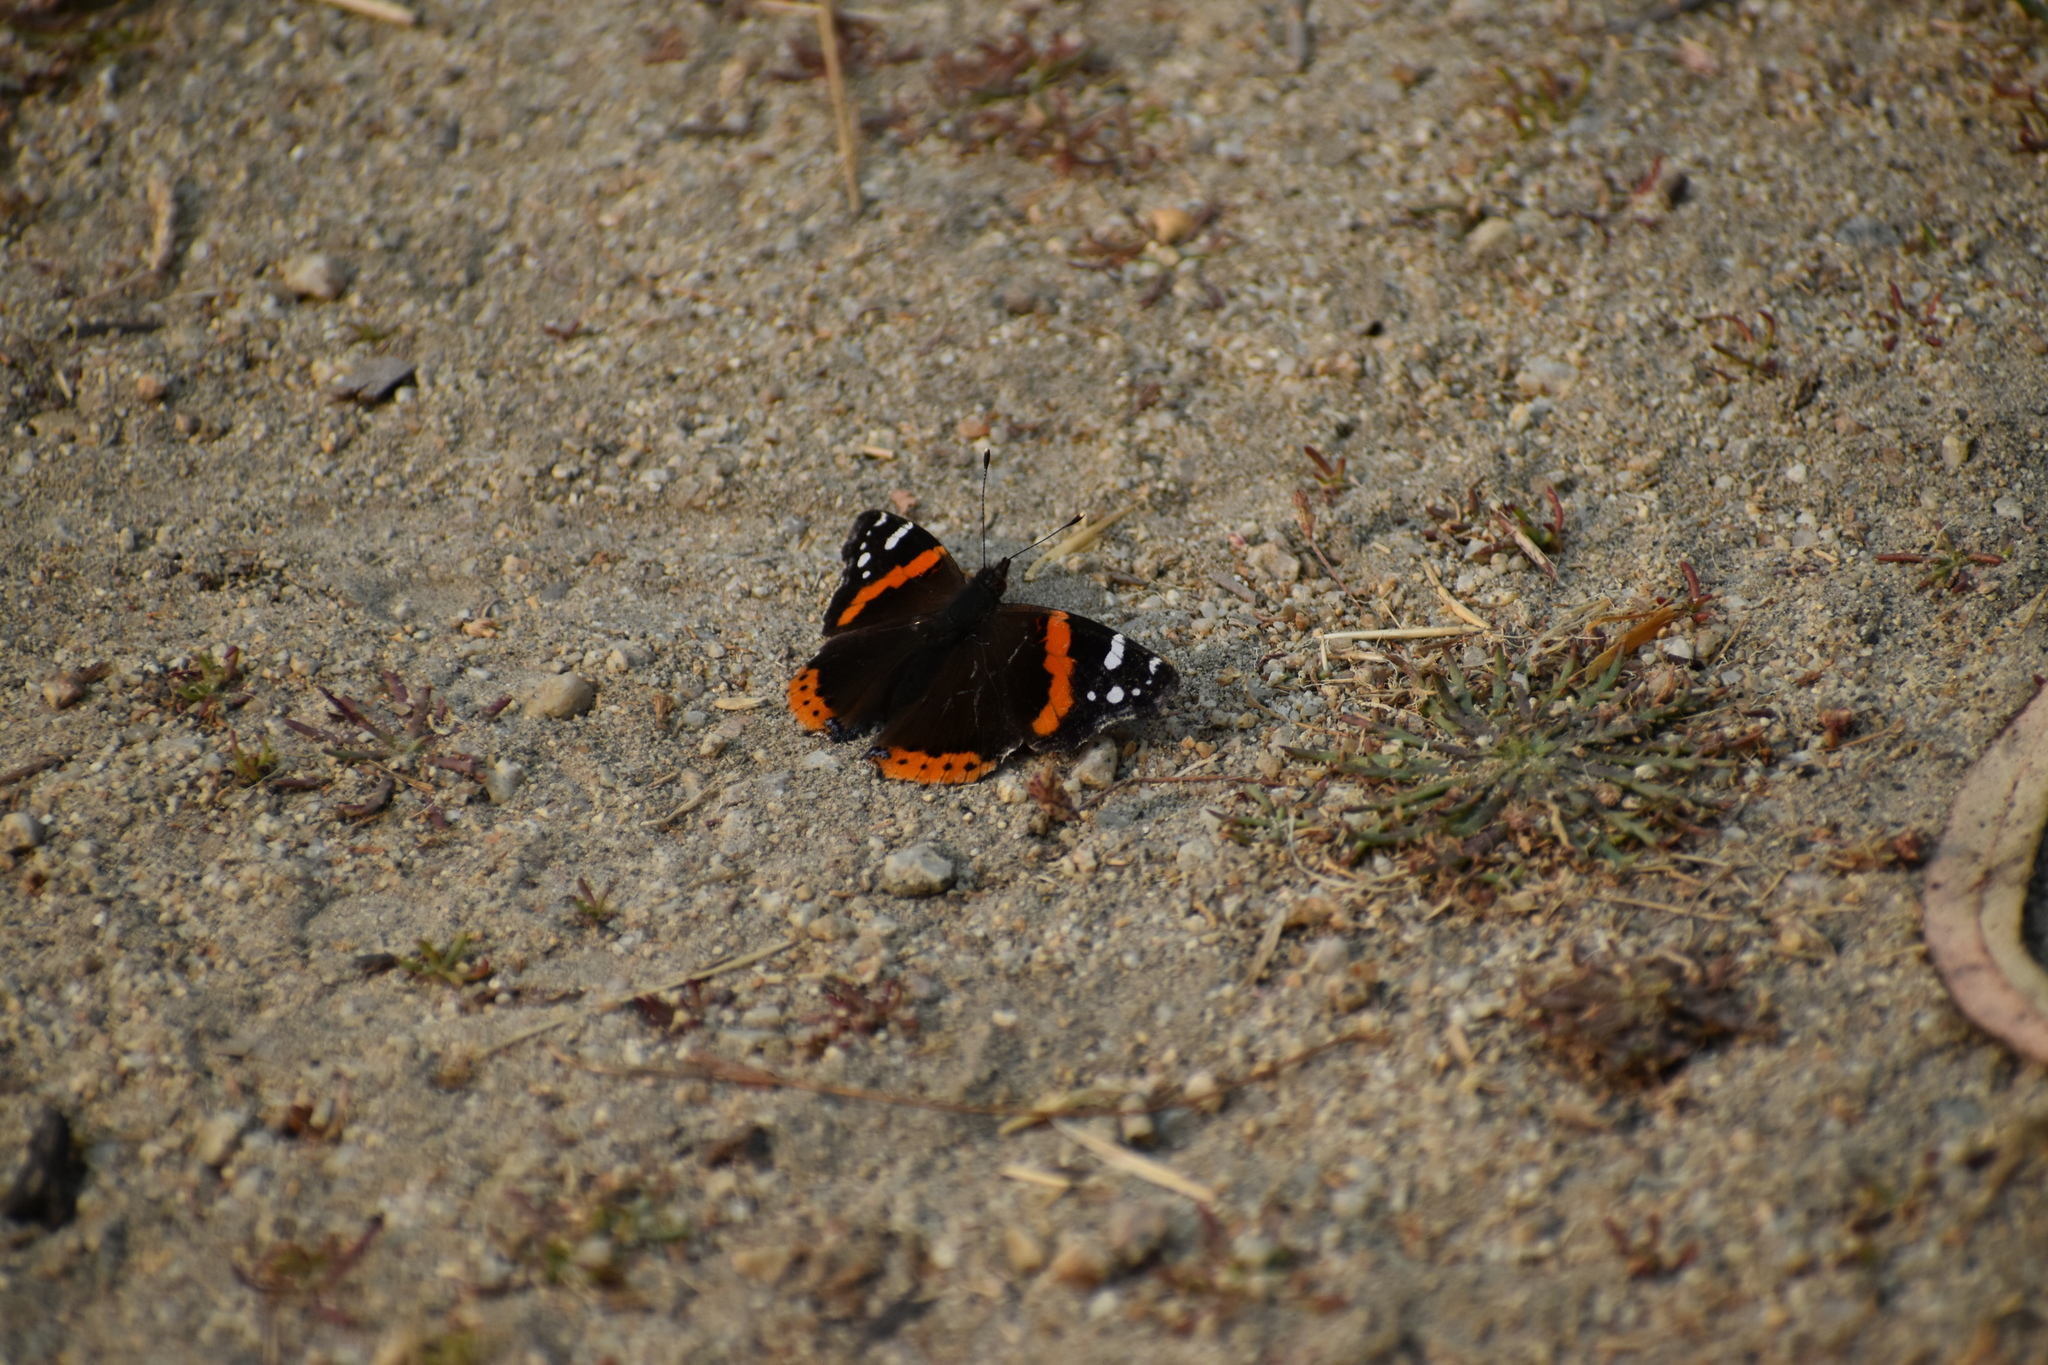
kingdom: Animalia
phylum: Arthropoda
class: Insecta
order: Lepidoptera
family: Nymphalidae
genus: Vanessa
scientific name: Vanessa atalanta
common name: Red admiral
